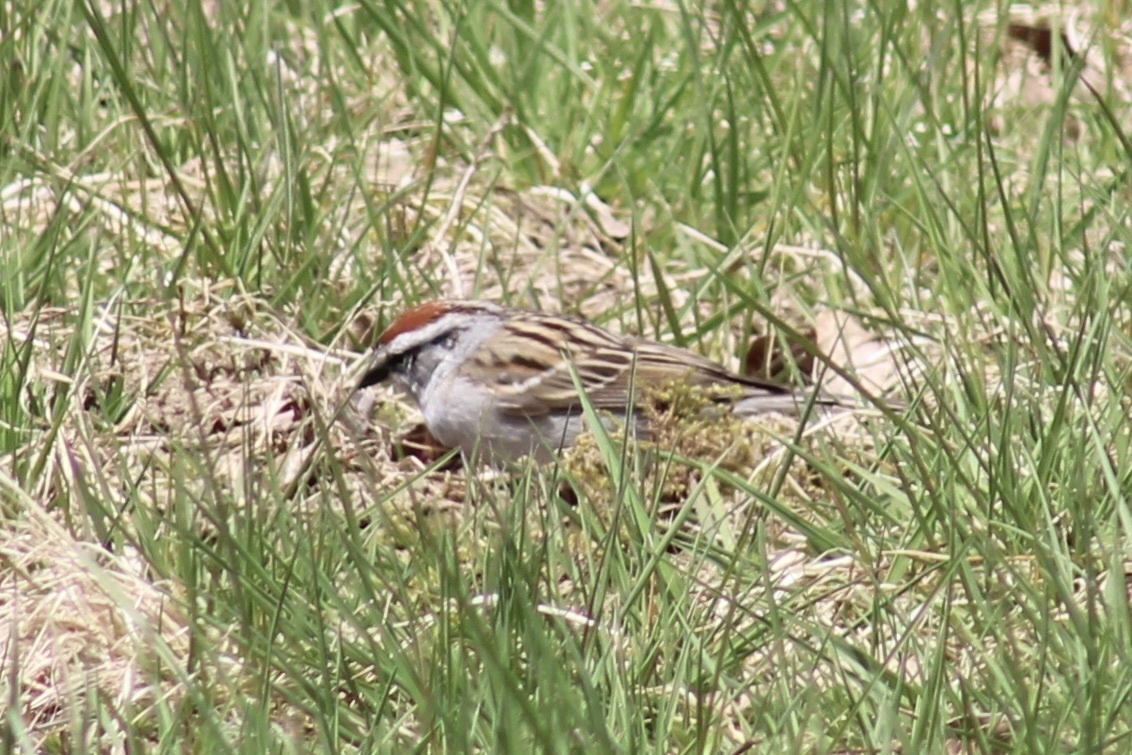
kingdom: Animalia
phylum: Chordata
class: Aves
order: Passeriformes
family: Passerellidae
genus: Spizella
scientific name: Spizella passerina
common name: Chipping sparrow
